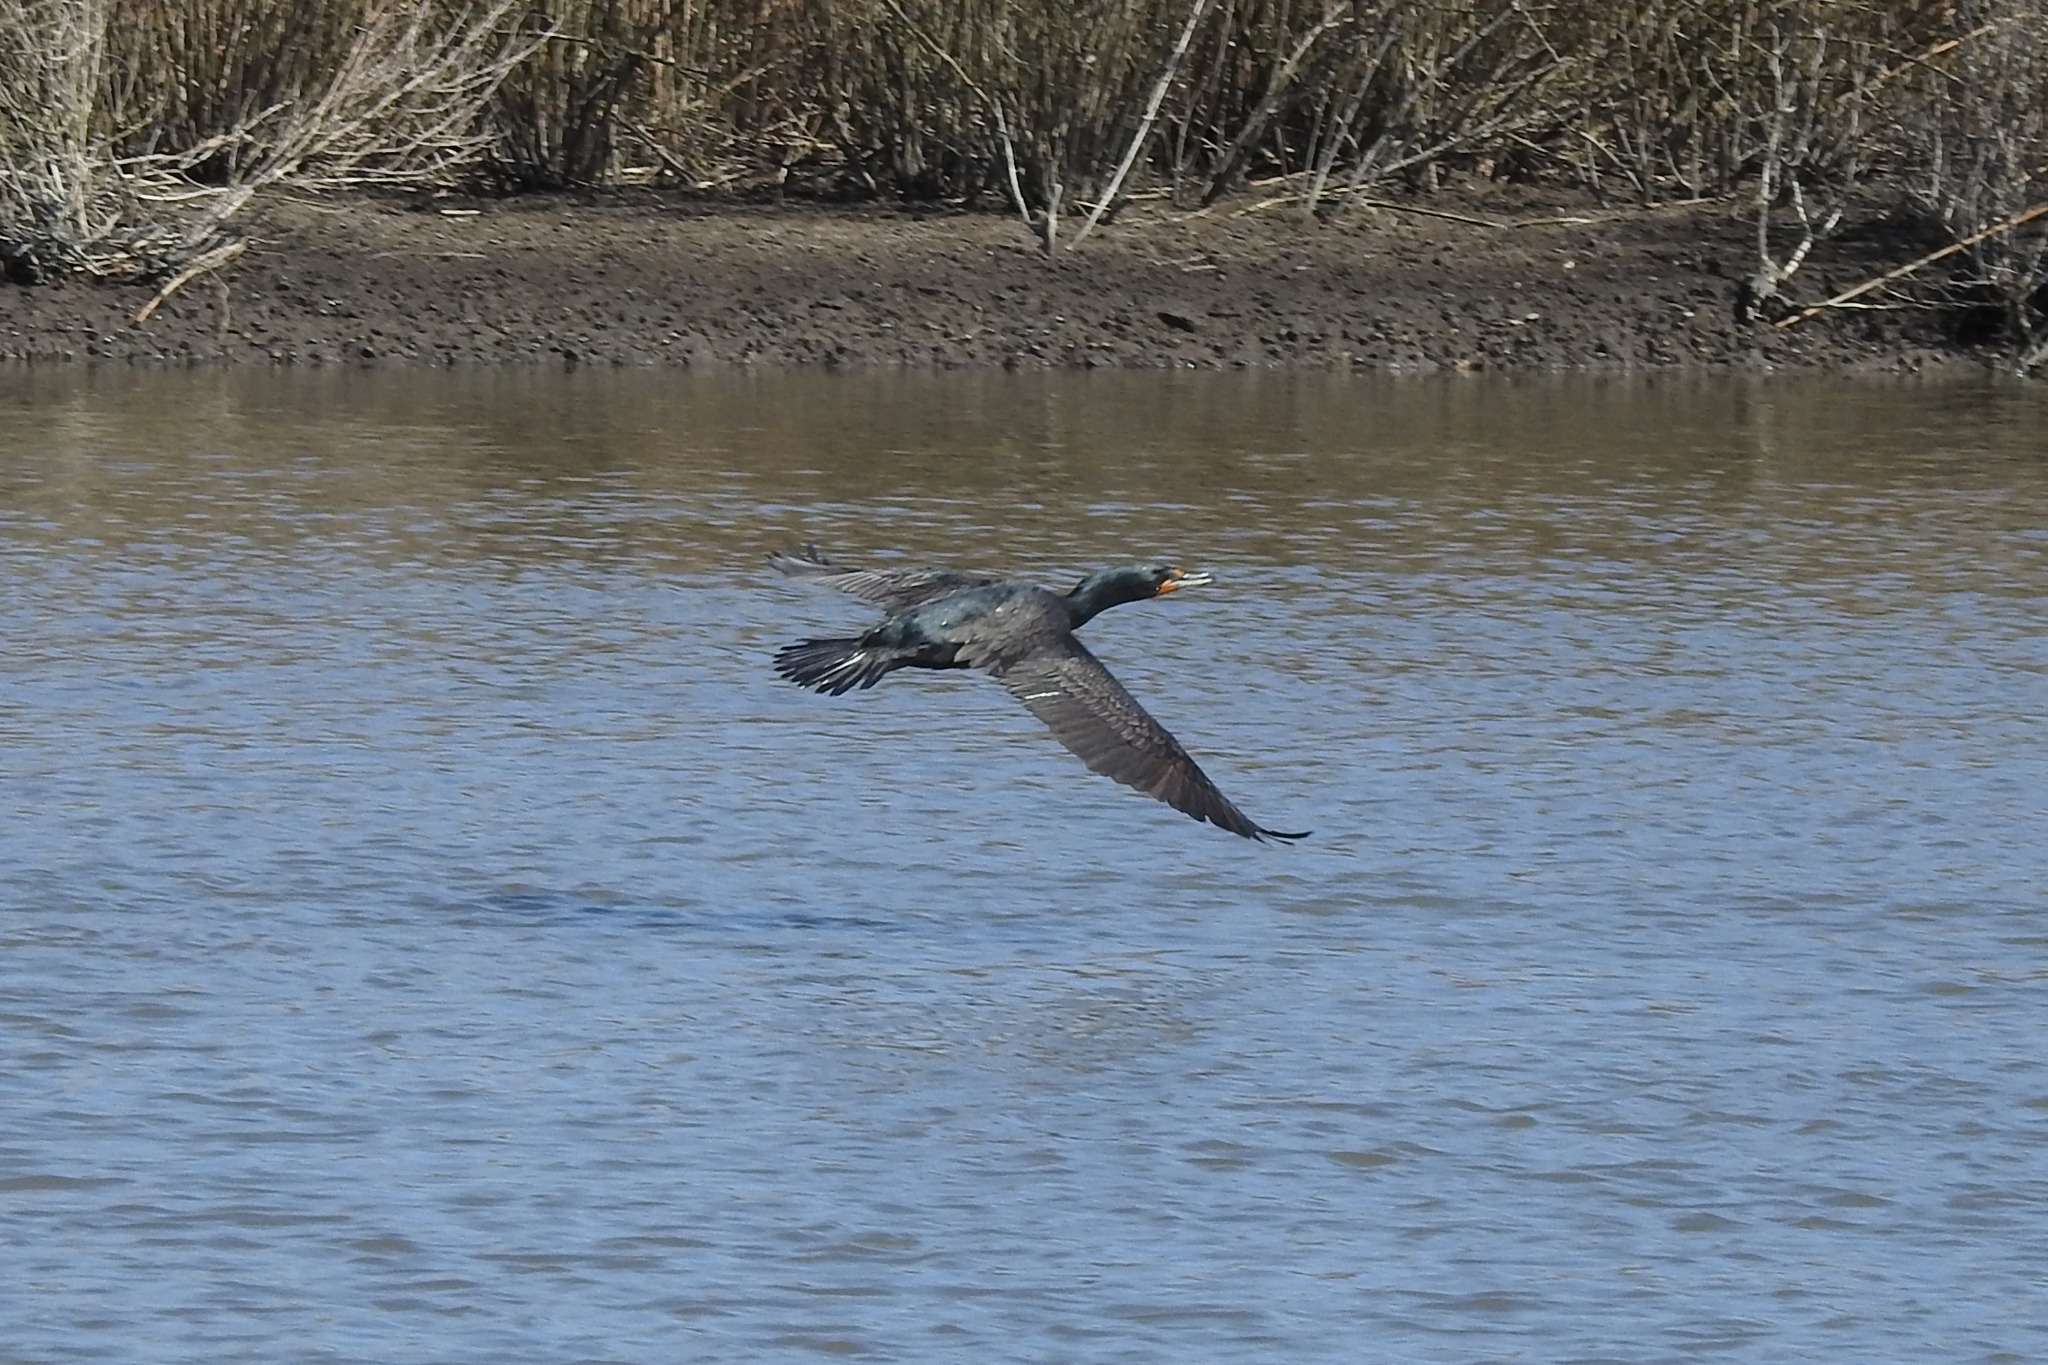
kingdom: Animalia
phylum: Chordata
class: Aves
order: Suliformes
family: Phalacrocoracidae
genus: Phalacrocorax
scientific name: Phalacrocorax auritus
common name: Double-crested cormorant
